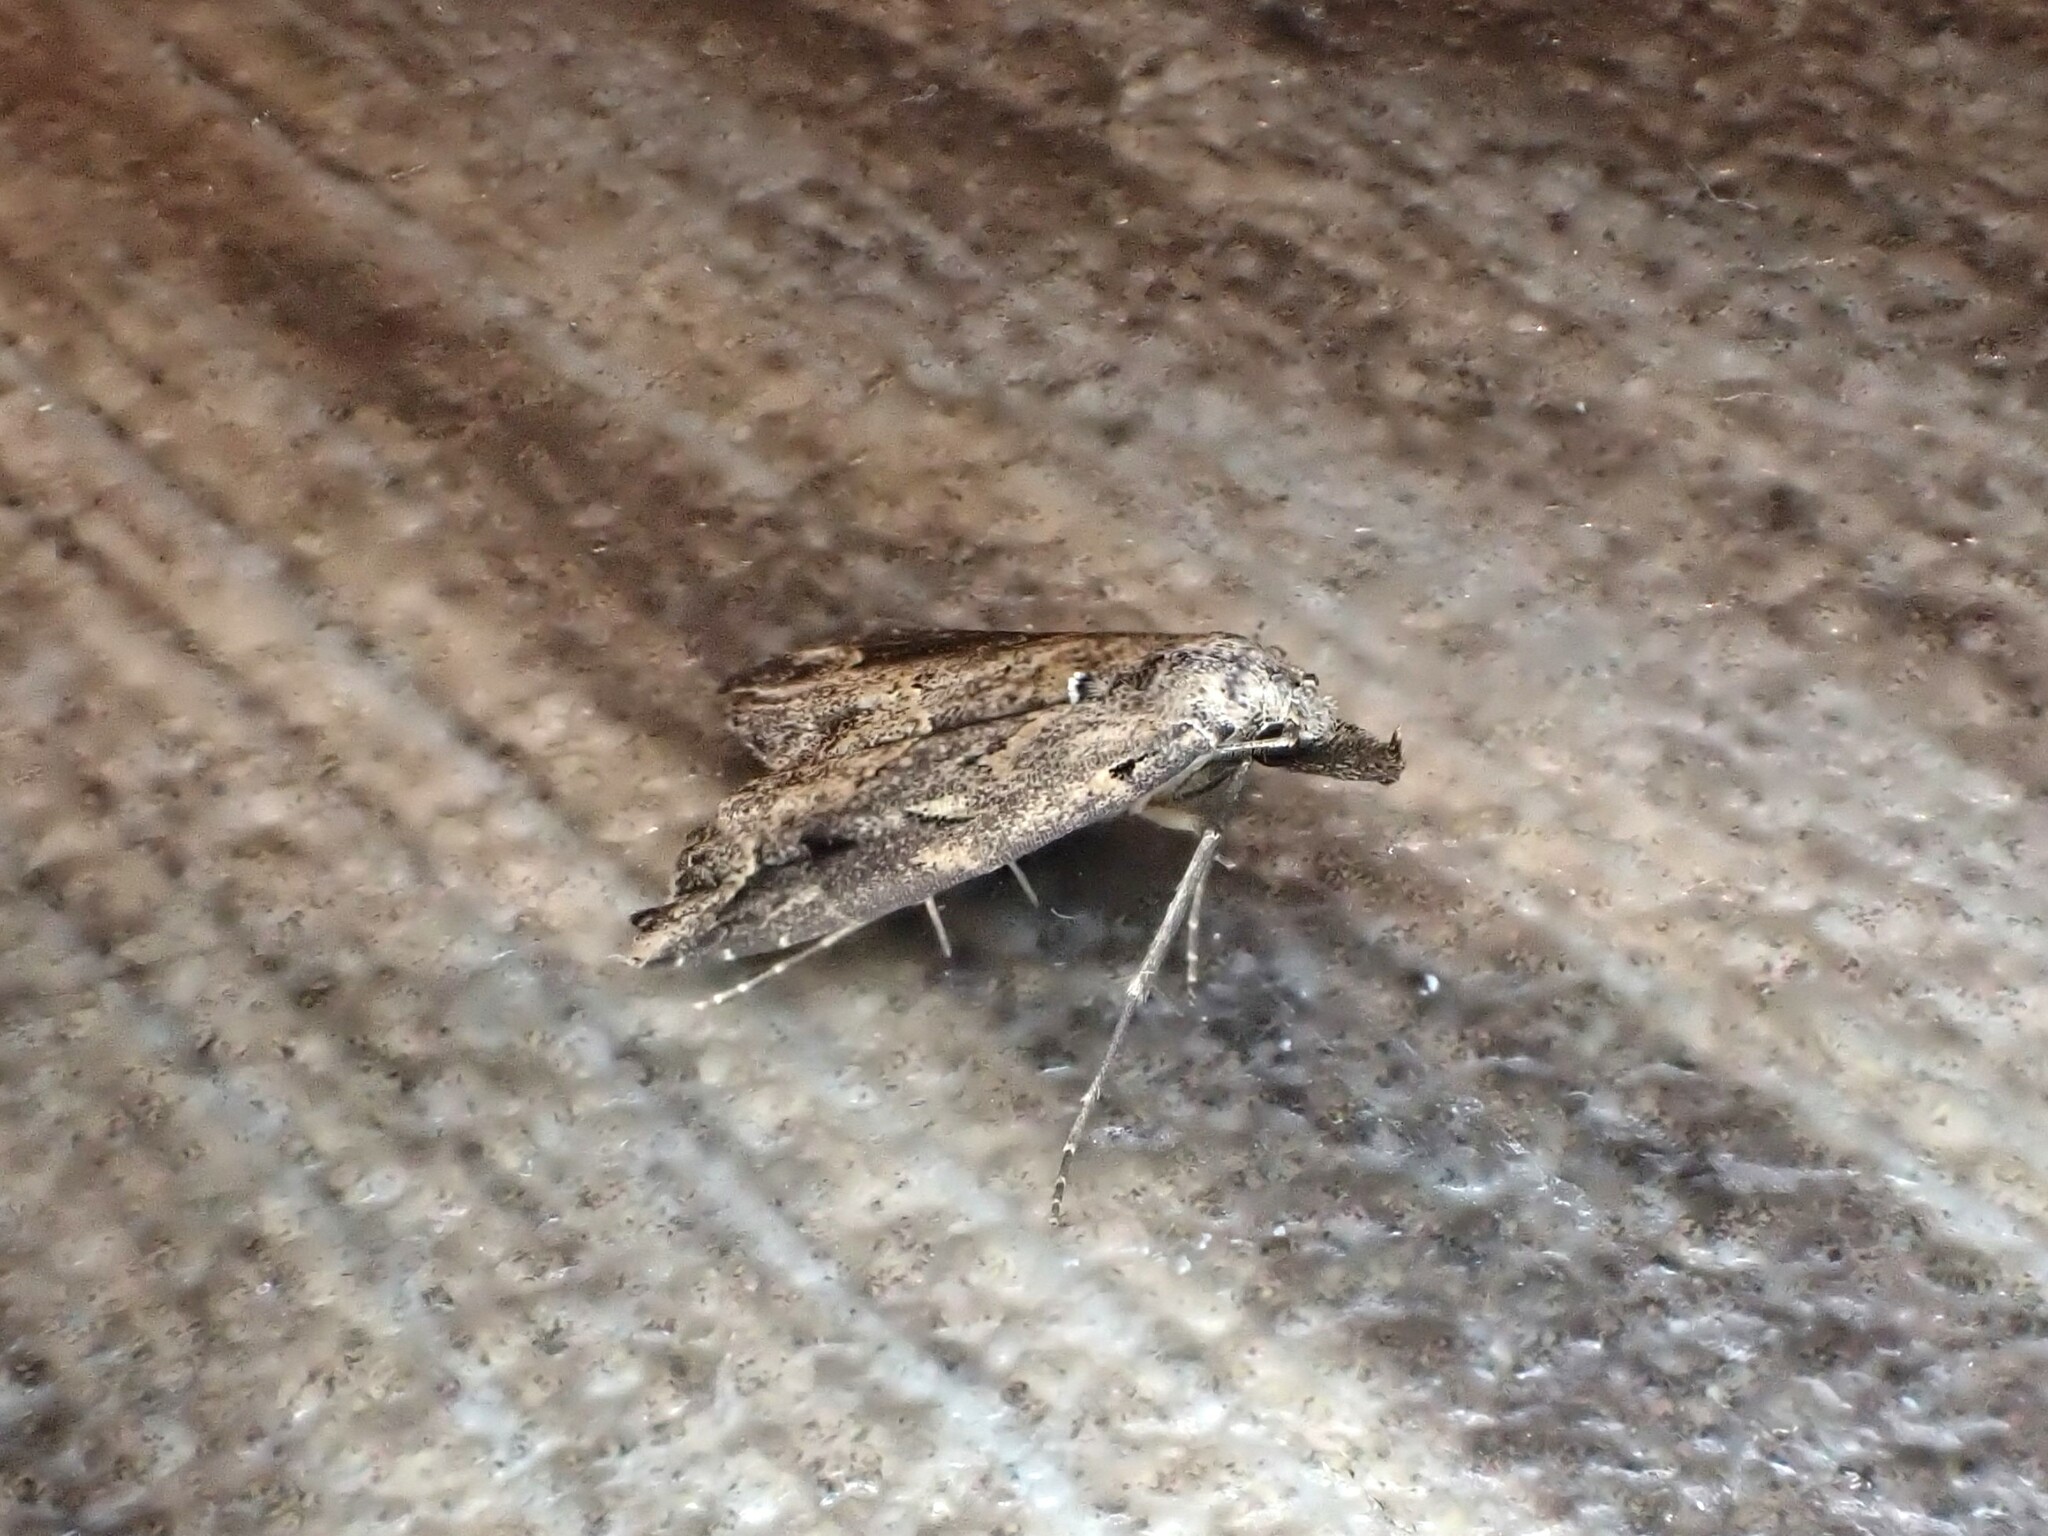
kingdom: Animalia
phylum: Arthropoda
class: Insecta
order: Lepidoptera
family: Erebidae
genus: Schrankia
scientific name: Schrankia costaestrigalis
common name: Pinion-streaked snout
